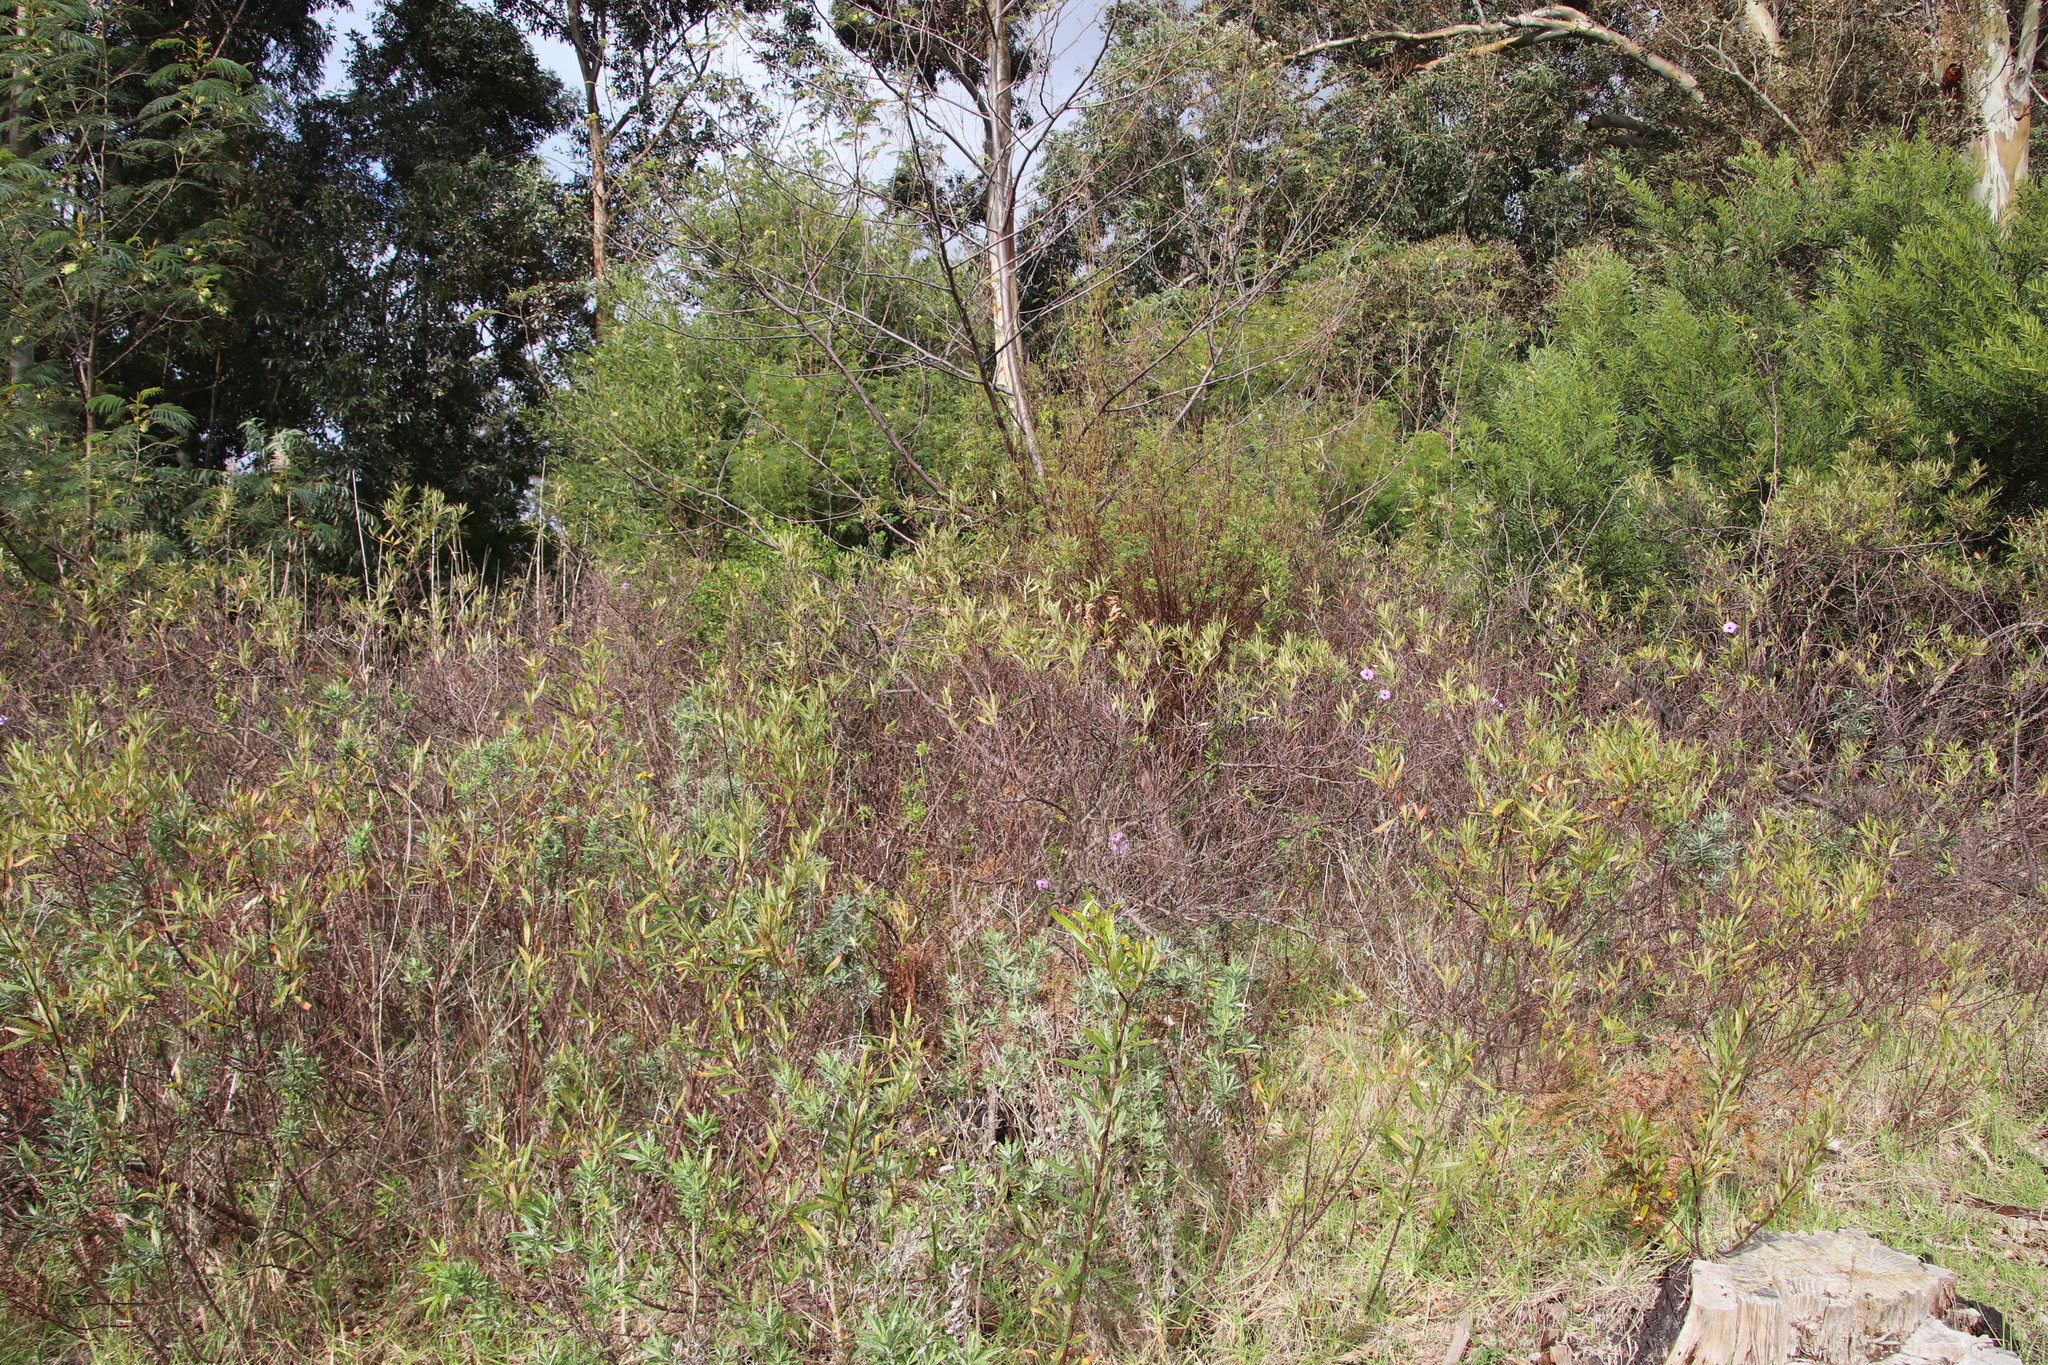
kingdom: Plantae
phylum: Tracheophyta
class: Magnoliopsida
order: Sapindales
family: Anacardiaceae
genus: Searsia
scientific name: Searsia angustifolia
